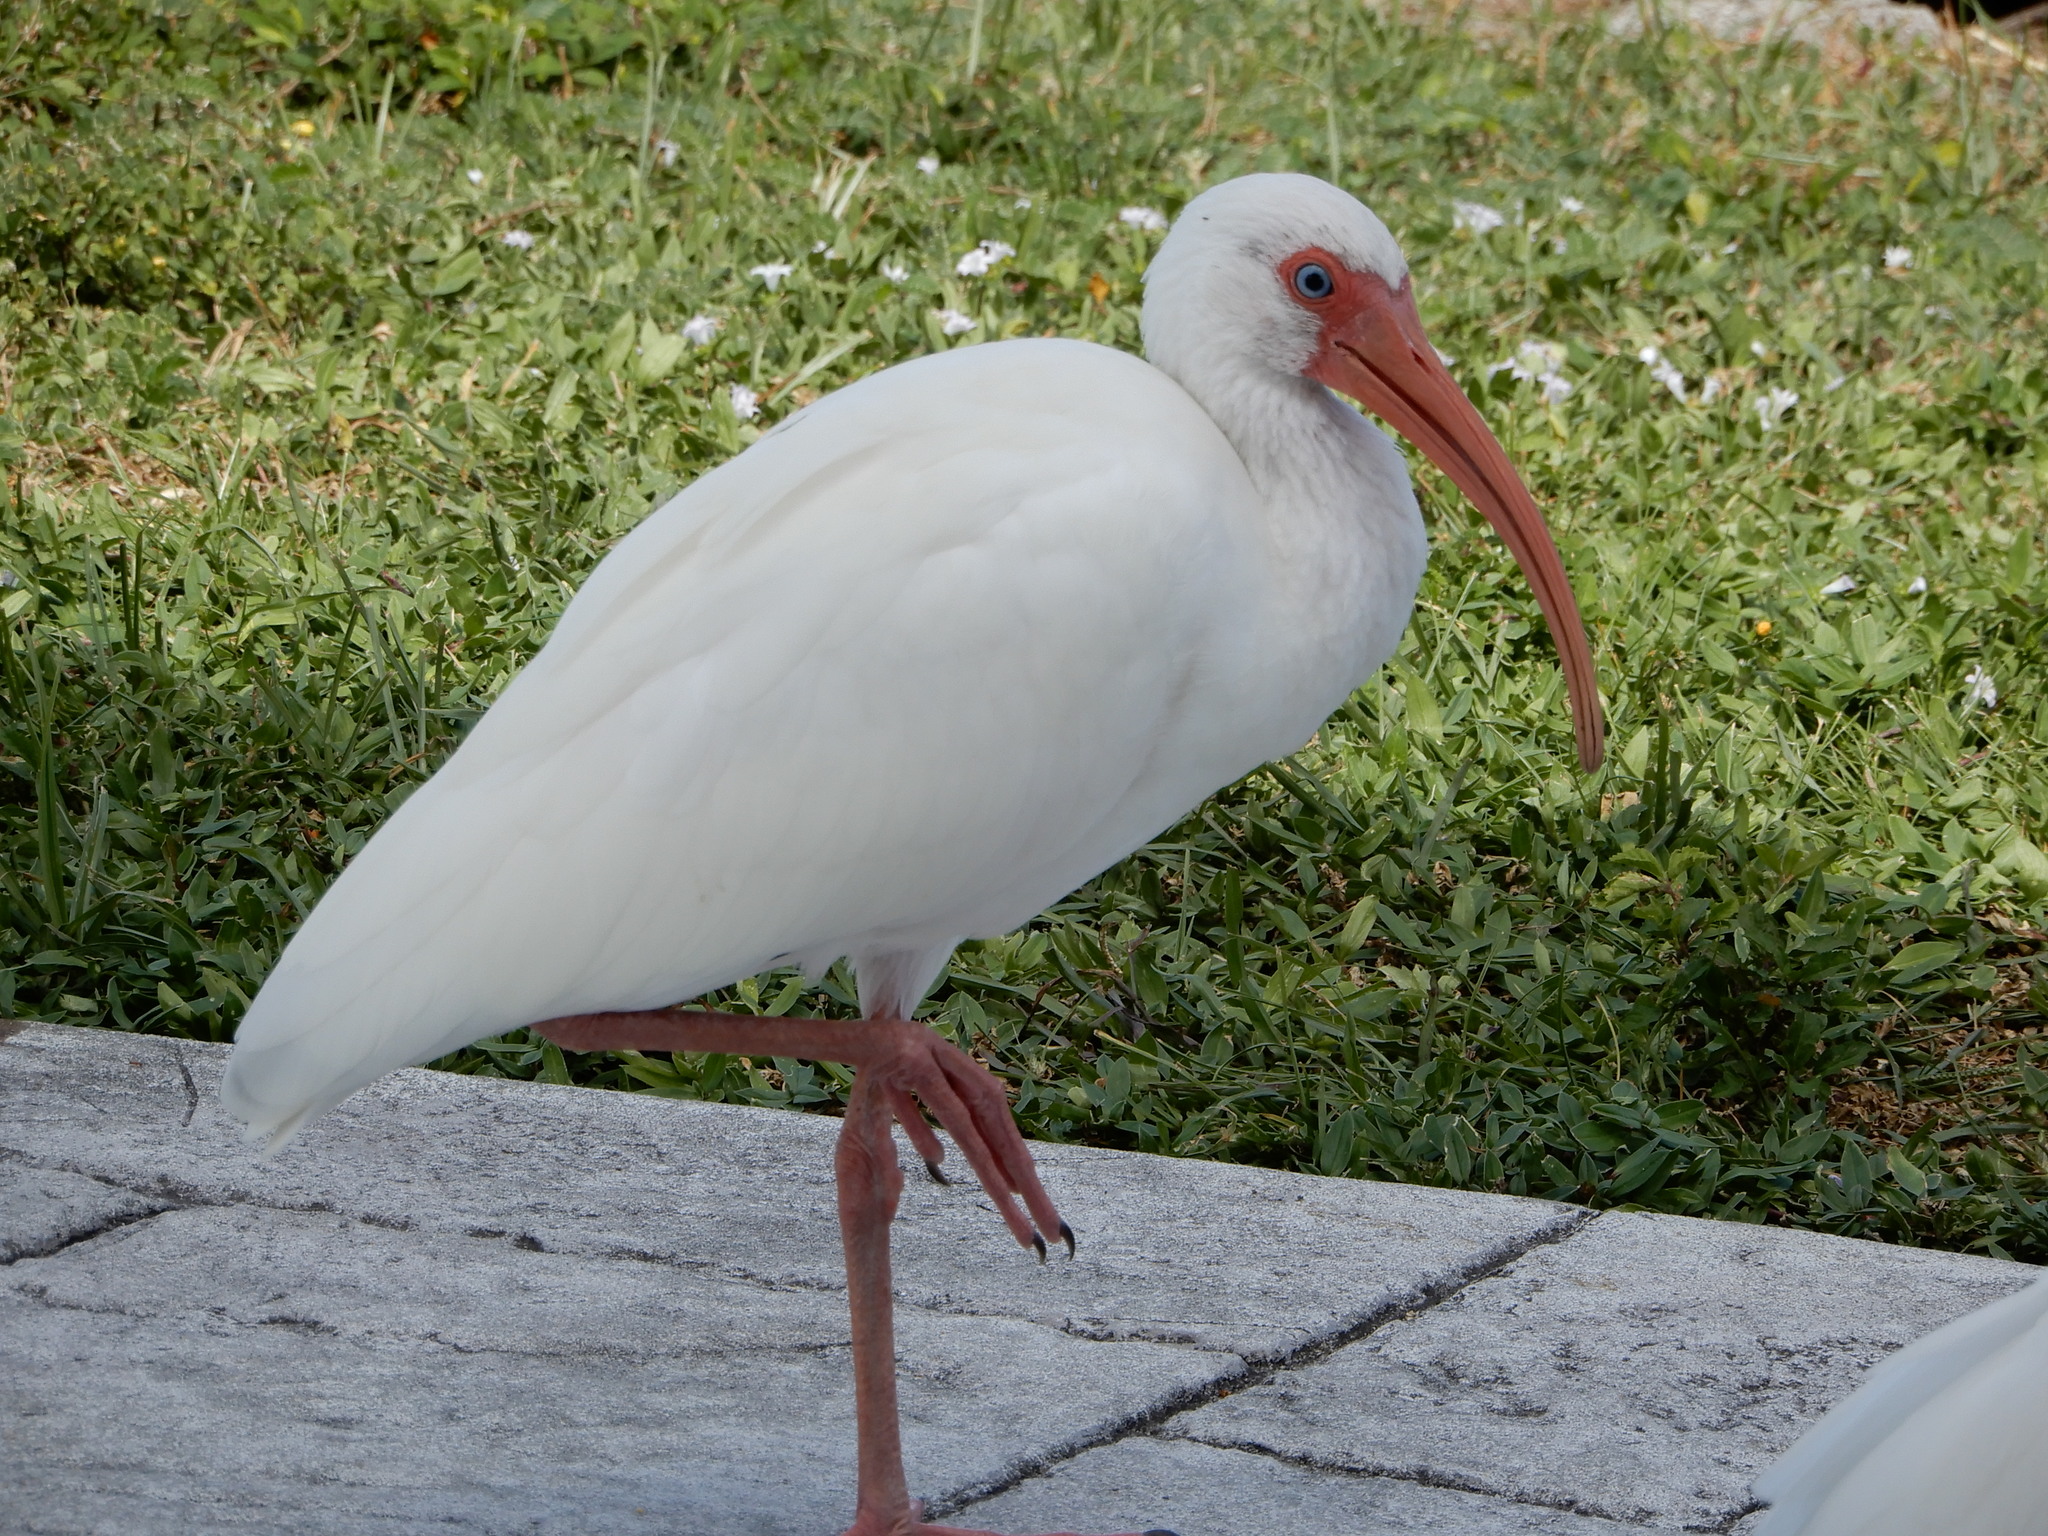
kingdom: Animalia
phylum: Chordata
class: Aves
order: Pelecaniformes
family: Threskiornithidae
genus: Eudocimus
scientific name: Eudocimus albus
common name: White ibis
